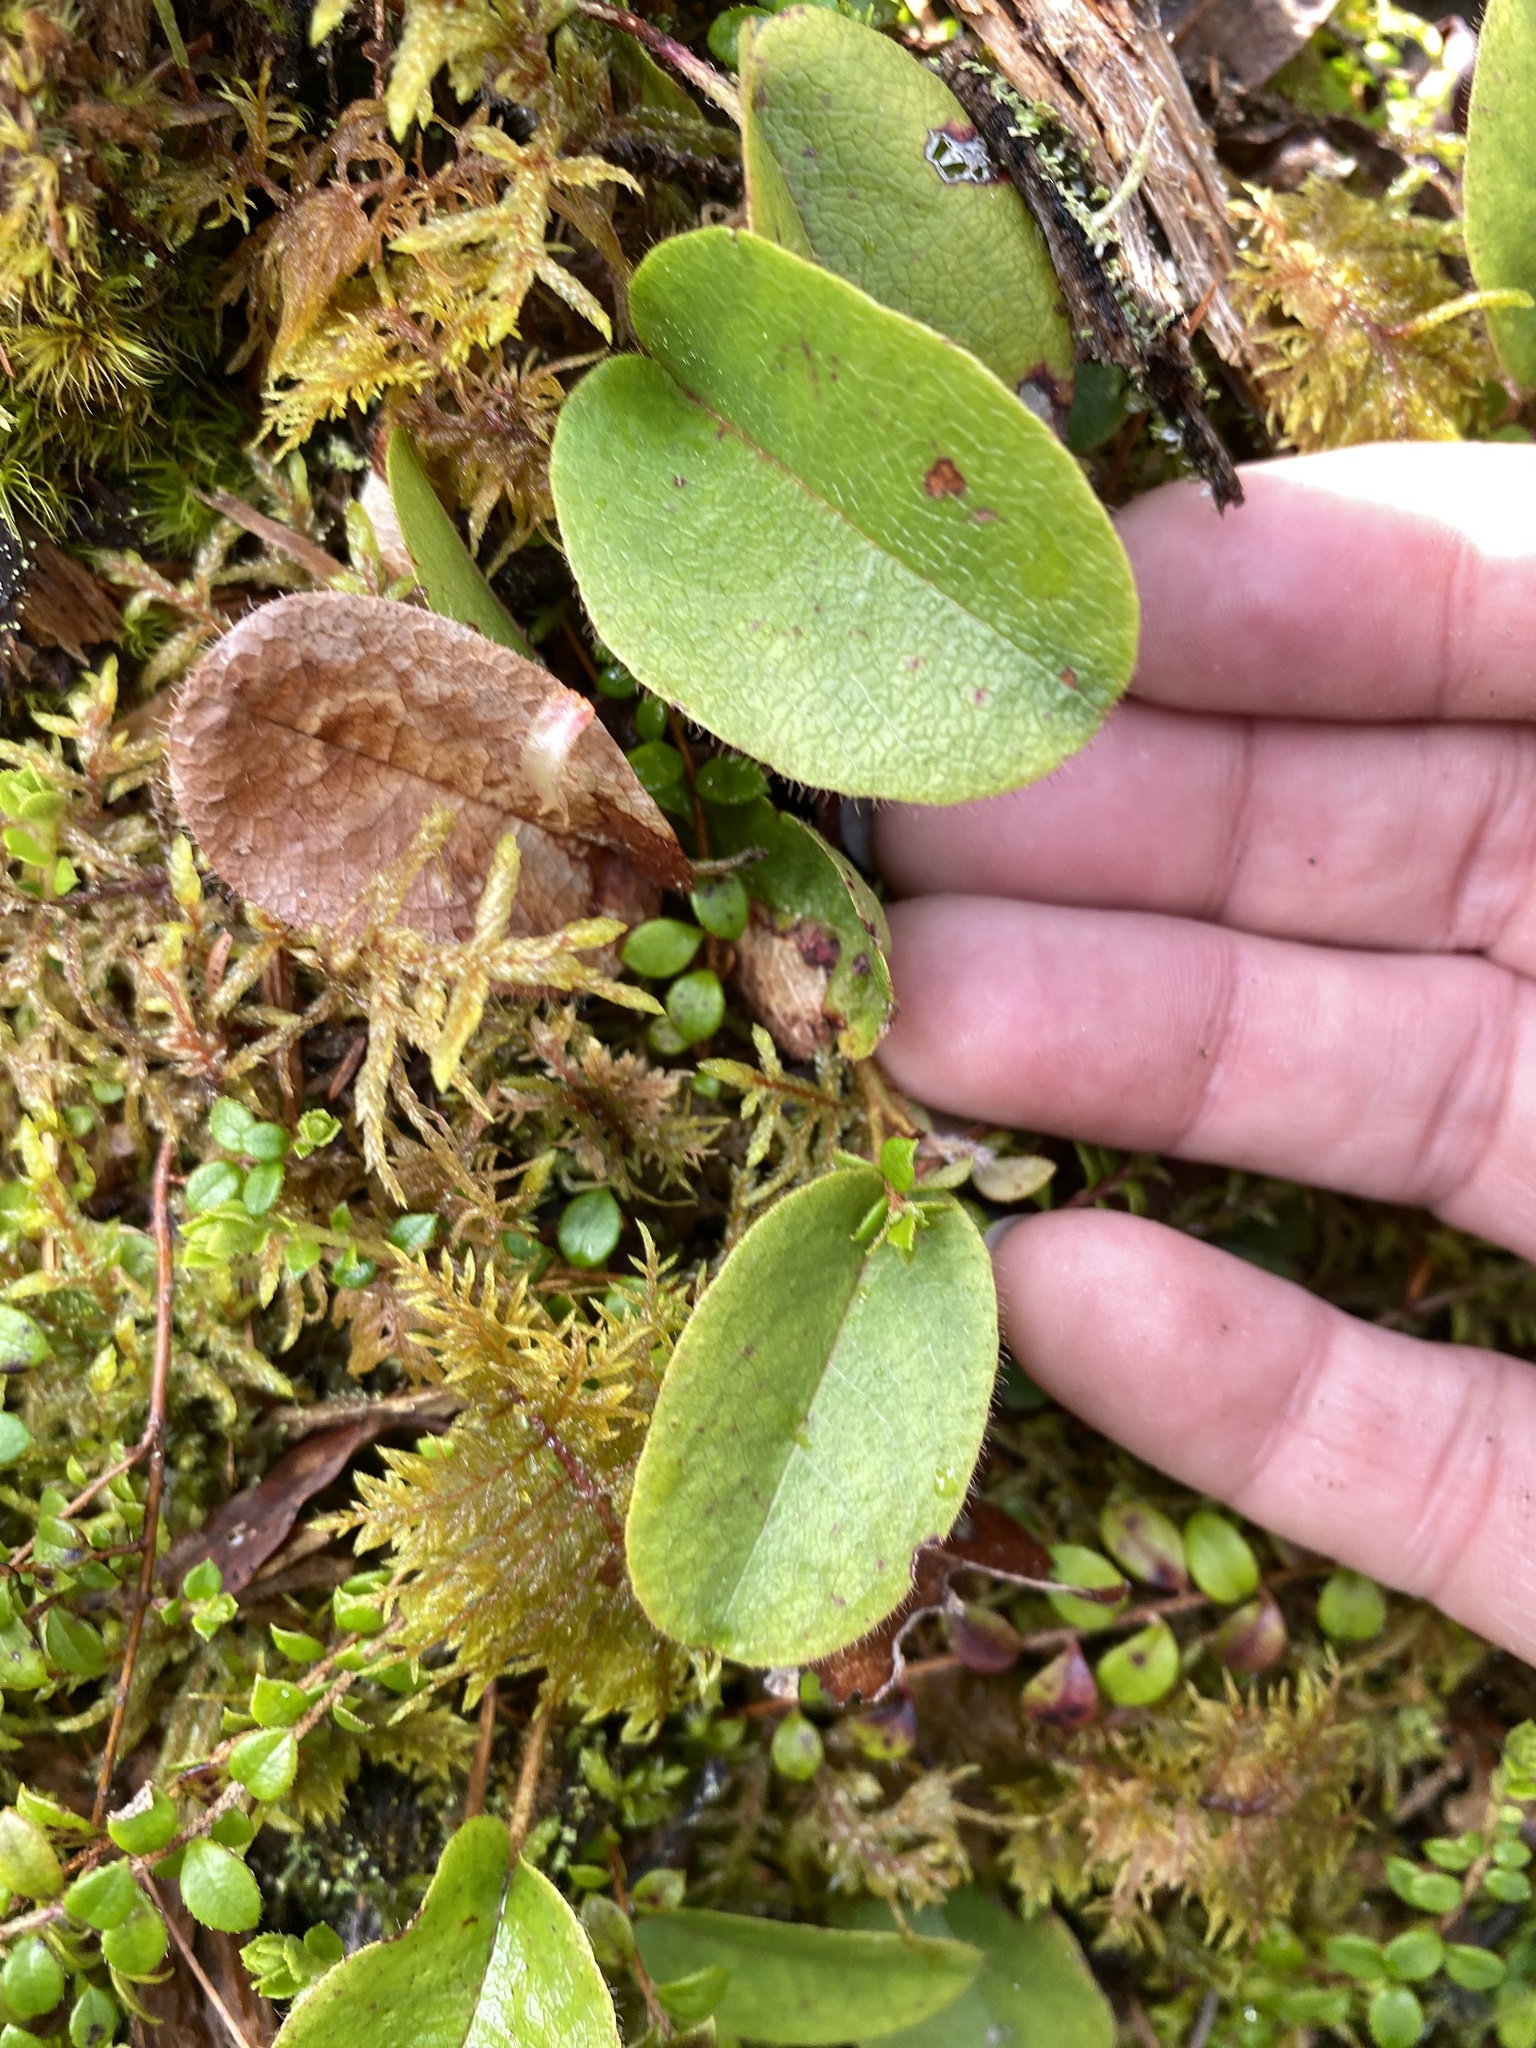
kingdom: Plantae
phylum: Tracheophyta
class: Magnoliopsida
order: Ericales
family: Ericaceae
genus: Epigaea
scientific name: Epigaea repens
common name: Gravelroot
